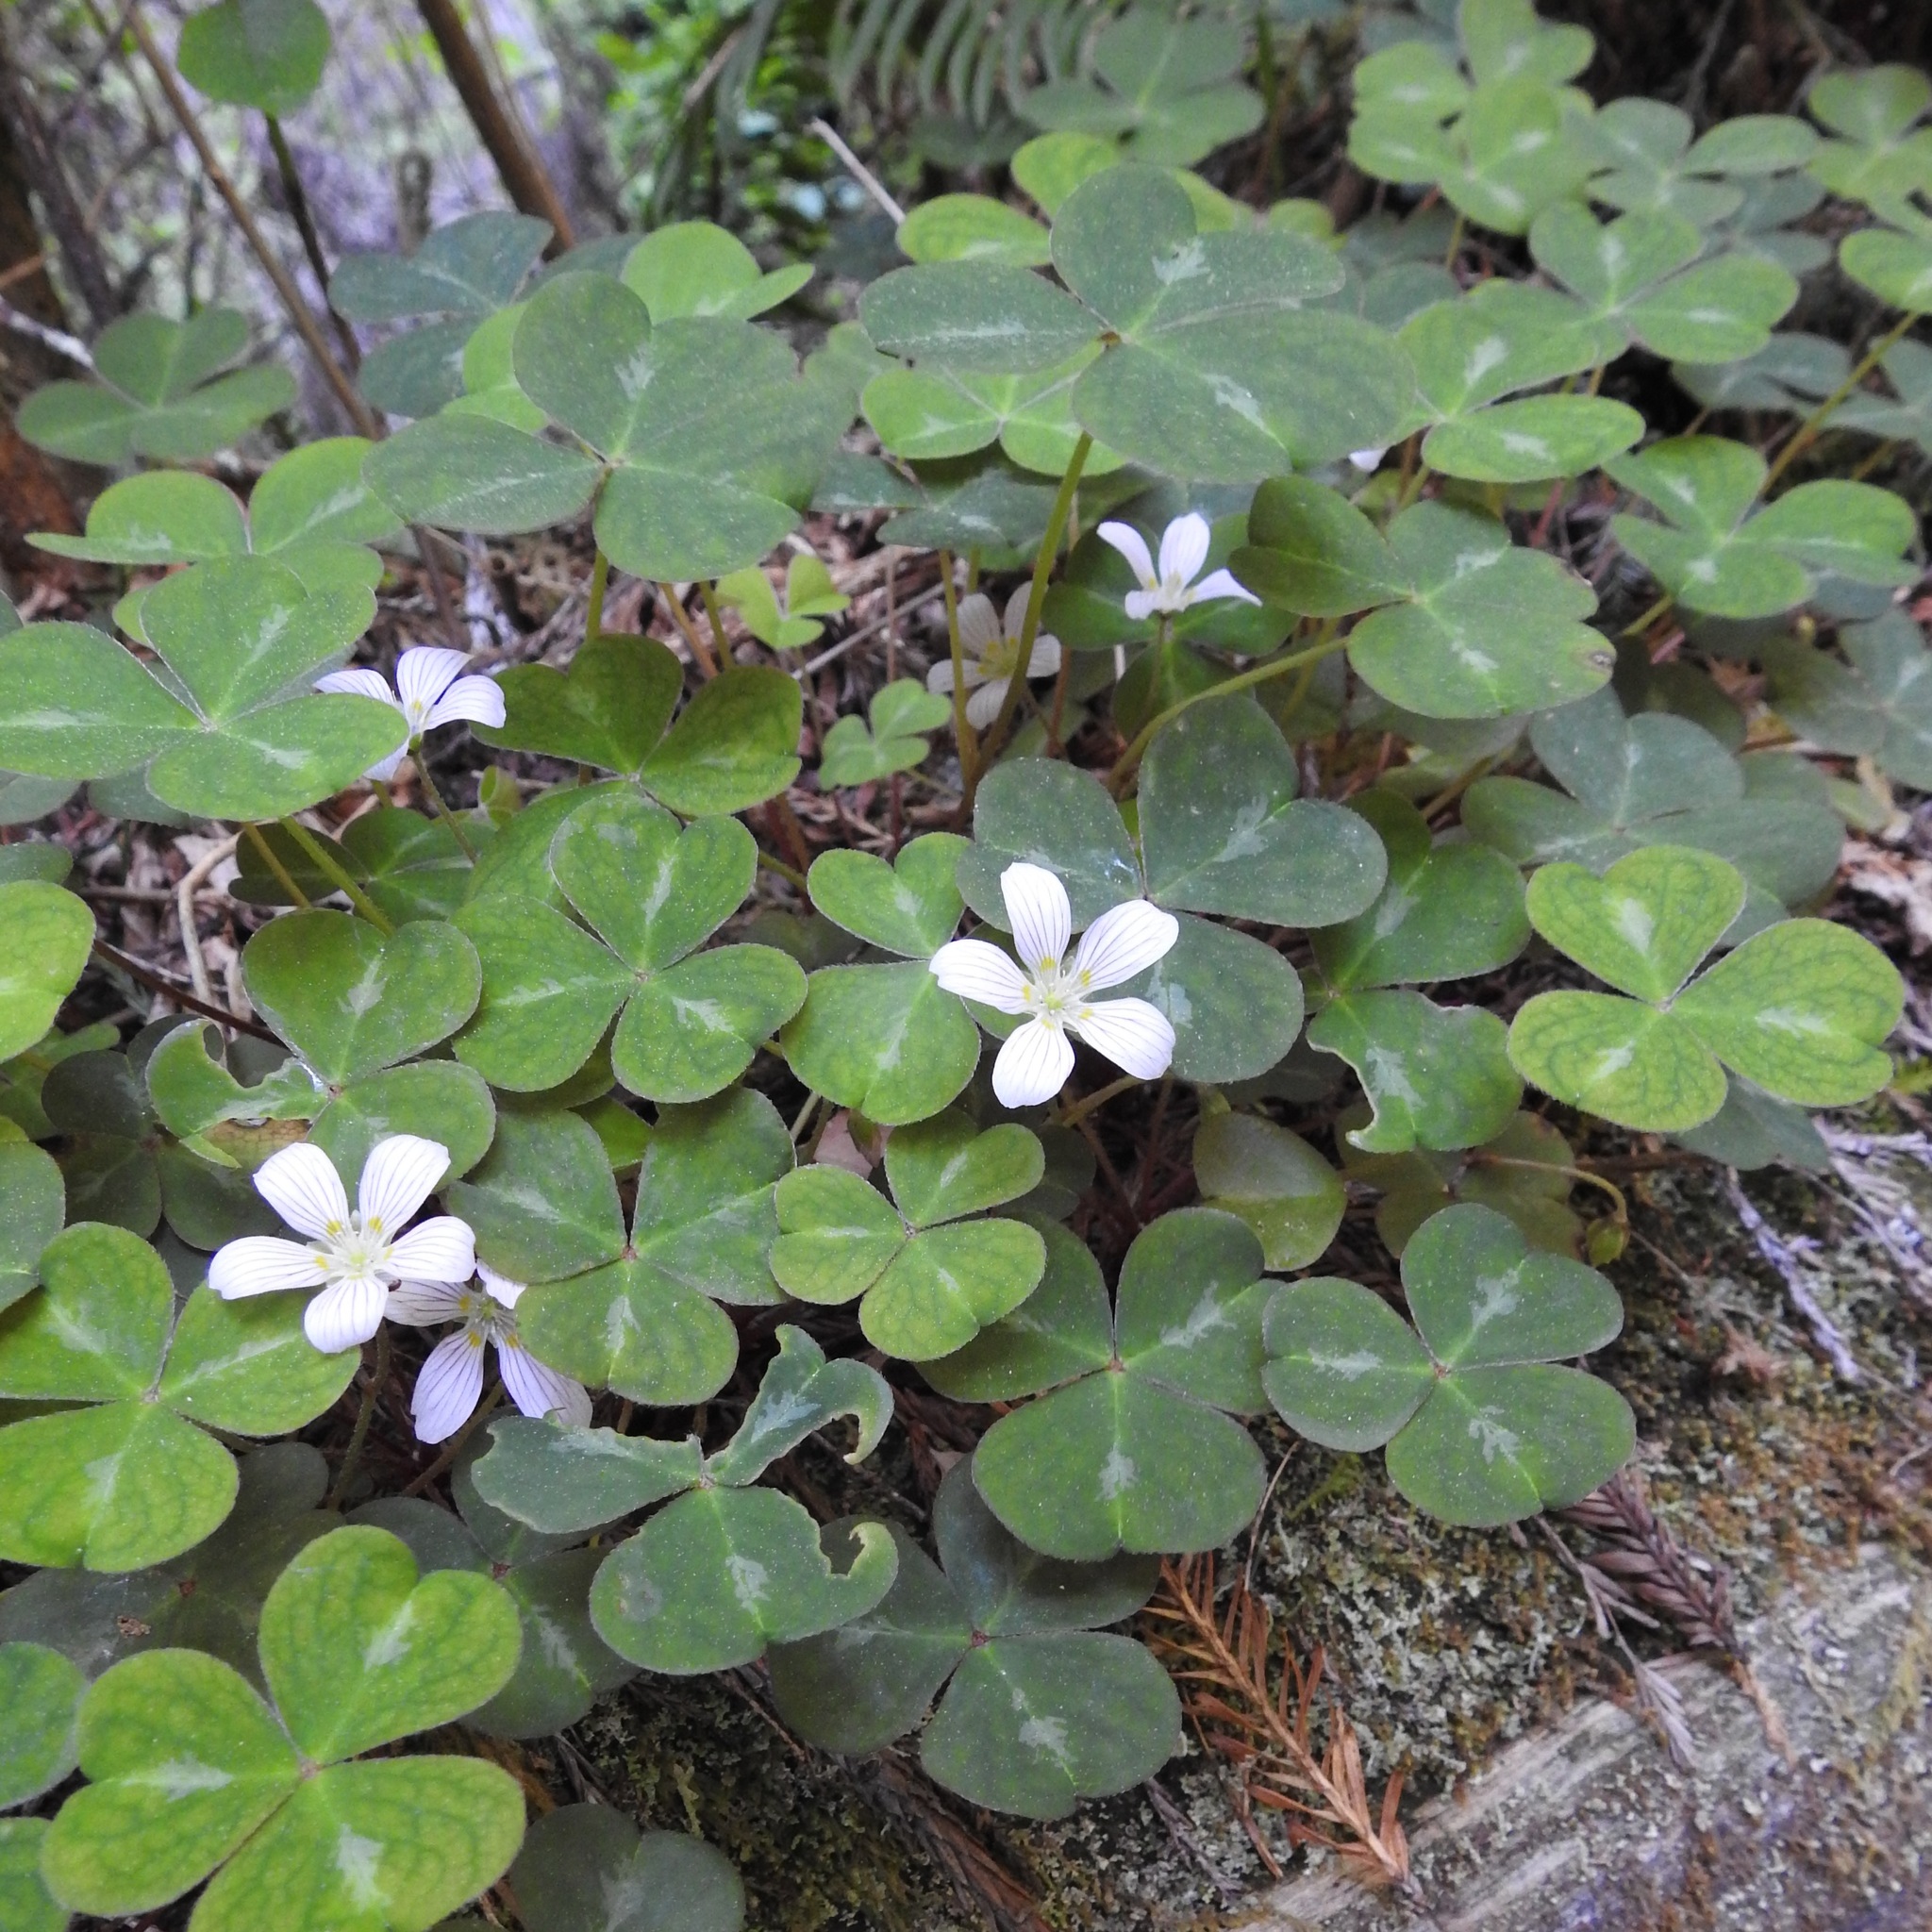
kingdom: Plantae
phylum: Tracheophyta
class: Magnoliopsida
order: Oxalidales
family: Oxalidaceae
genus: Oxalis
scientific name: Oxalis oregana
